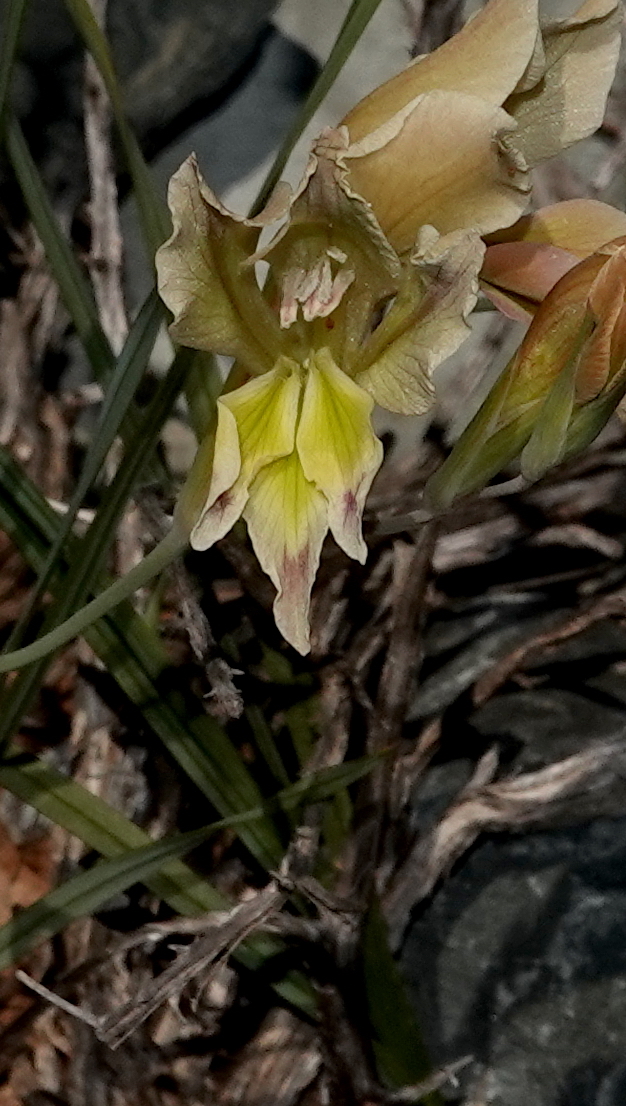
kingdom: Plantae
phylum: Tracheophyta
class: Liliopsida
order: Asparagales
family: Iridaceae
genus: Gladiolus
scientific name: Gladiolus scullyi
